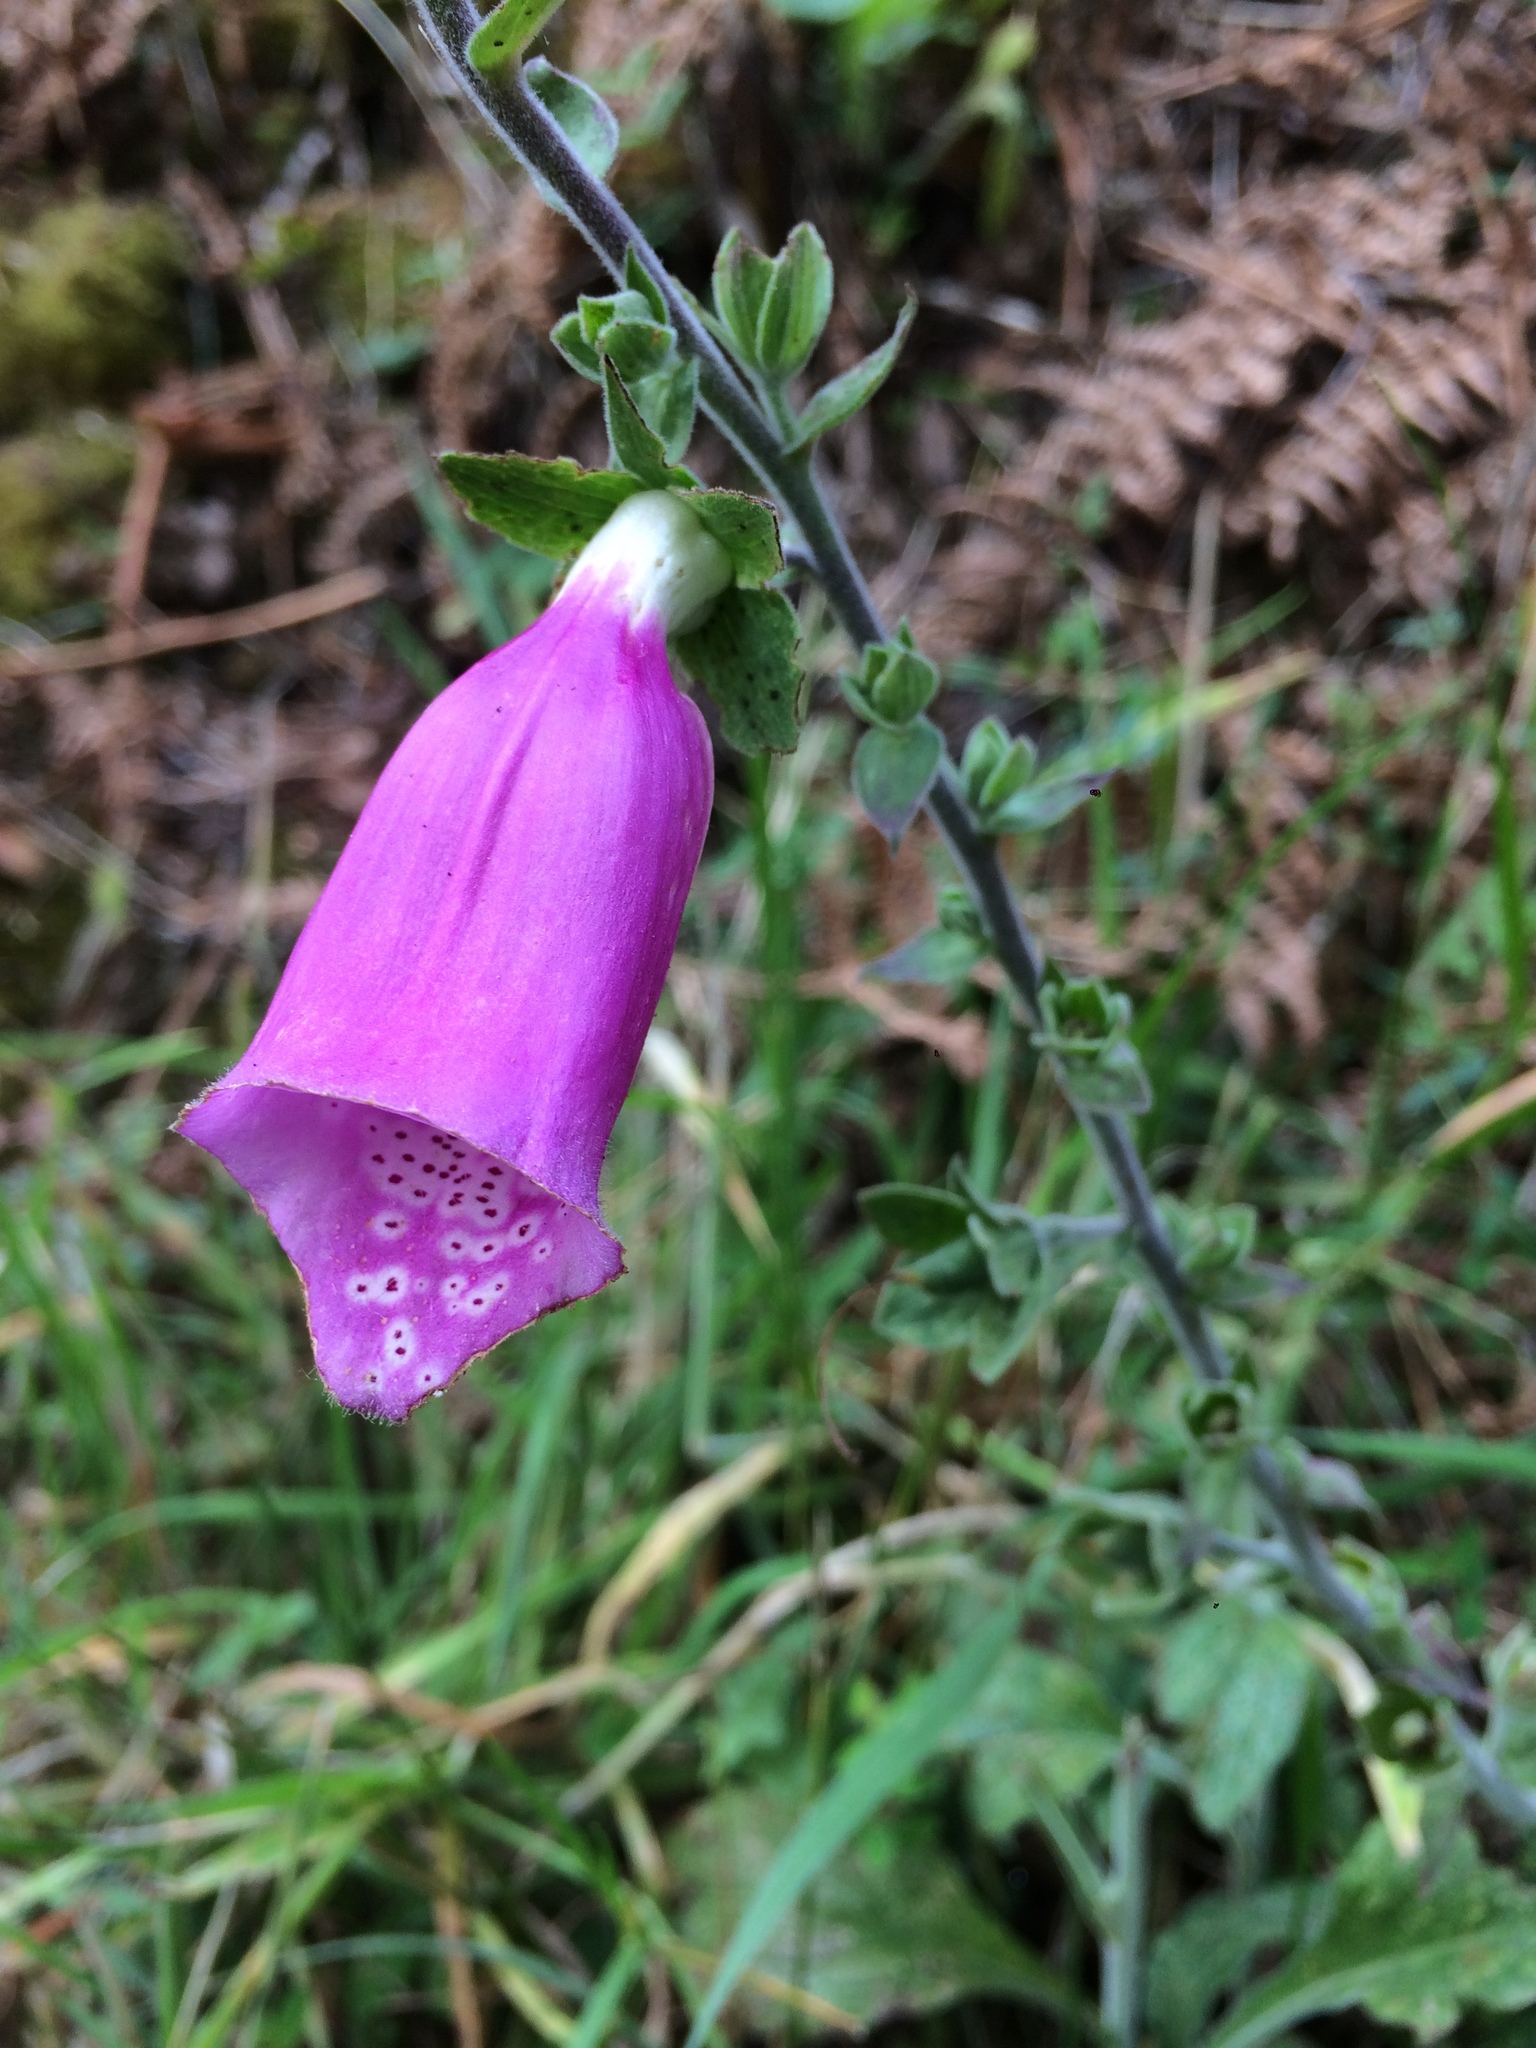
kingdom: Plantae
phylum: Tracheophyta
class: Magnoliopsida
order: Lamiales
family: Plantaginaceae
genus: Digitalis
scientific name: Digitalis purpurea
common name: Foxglove
